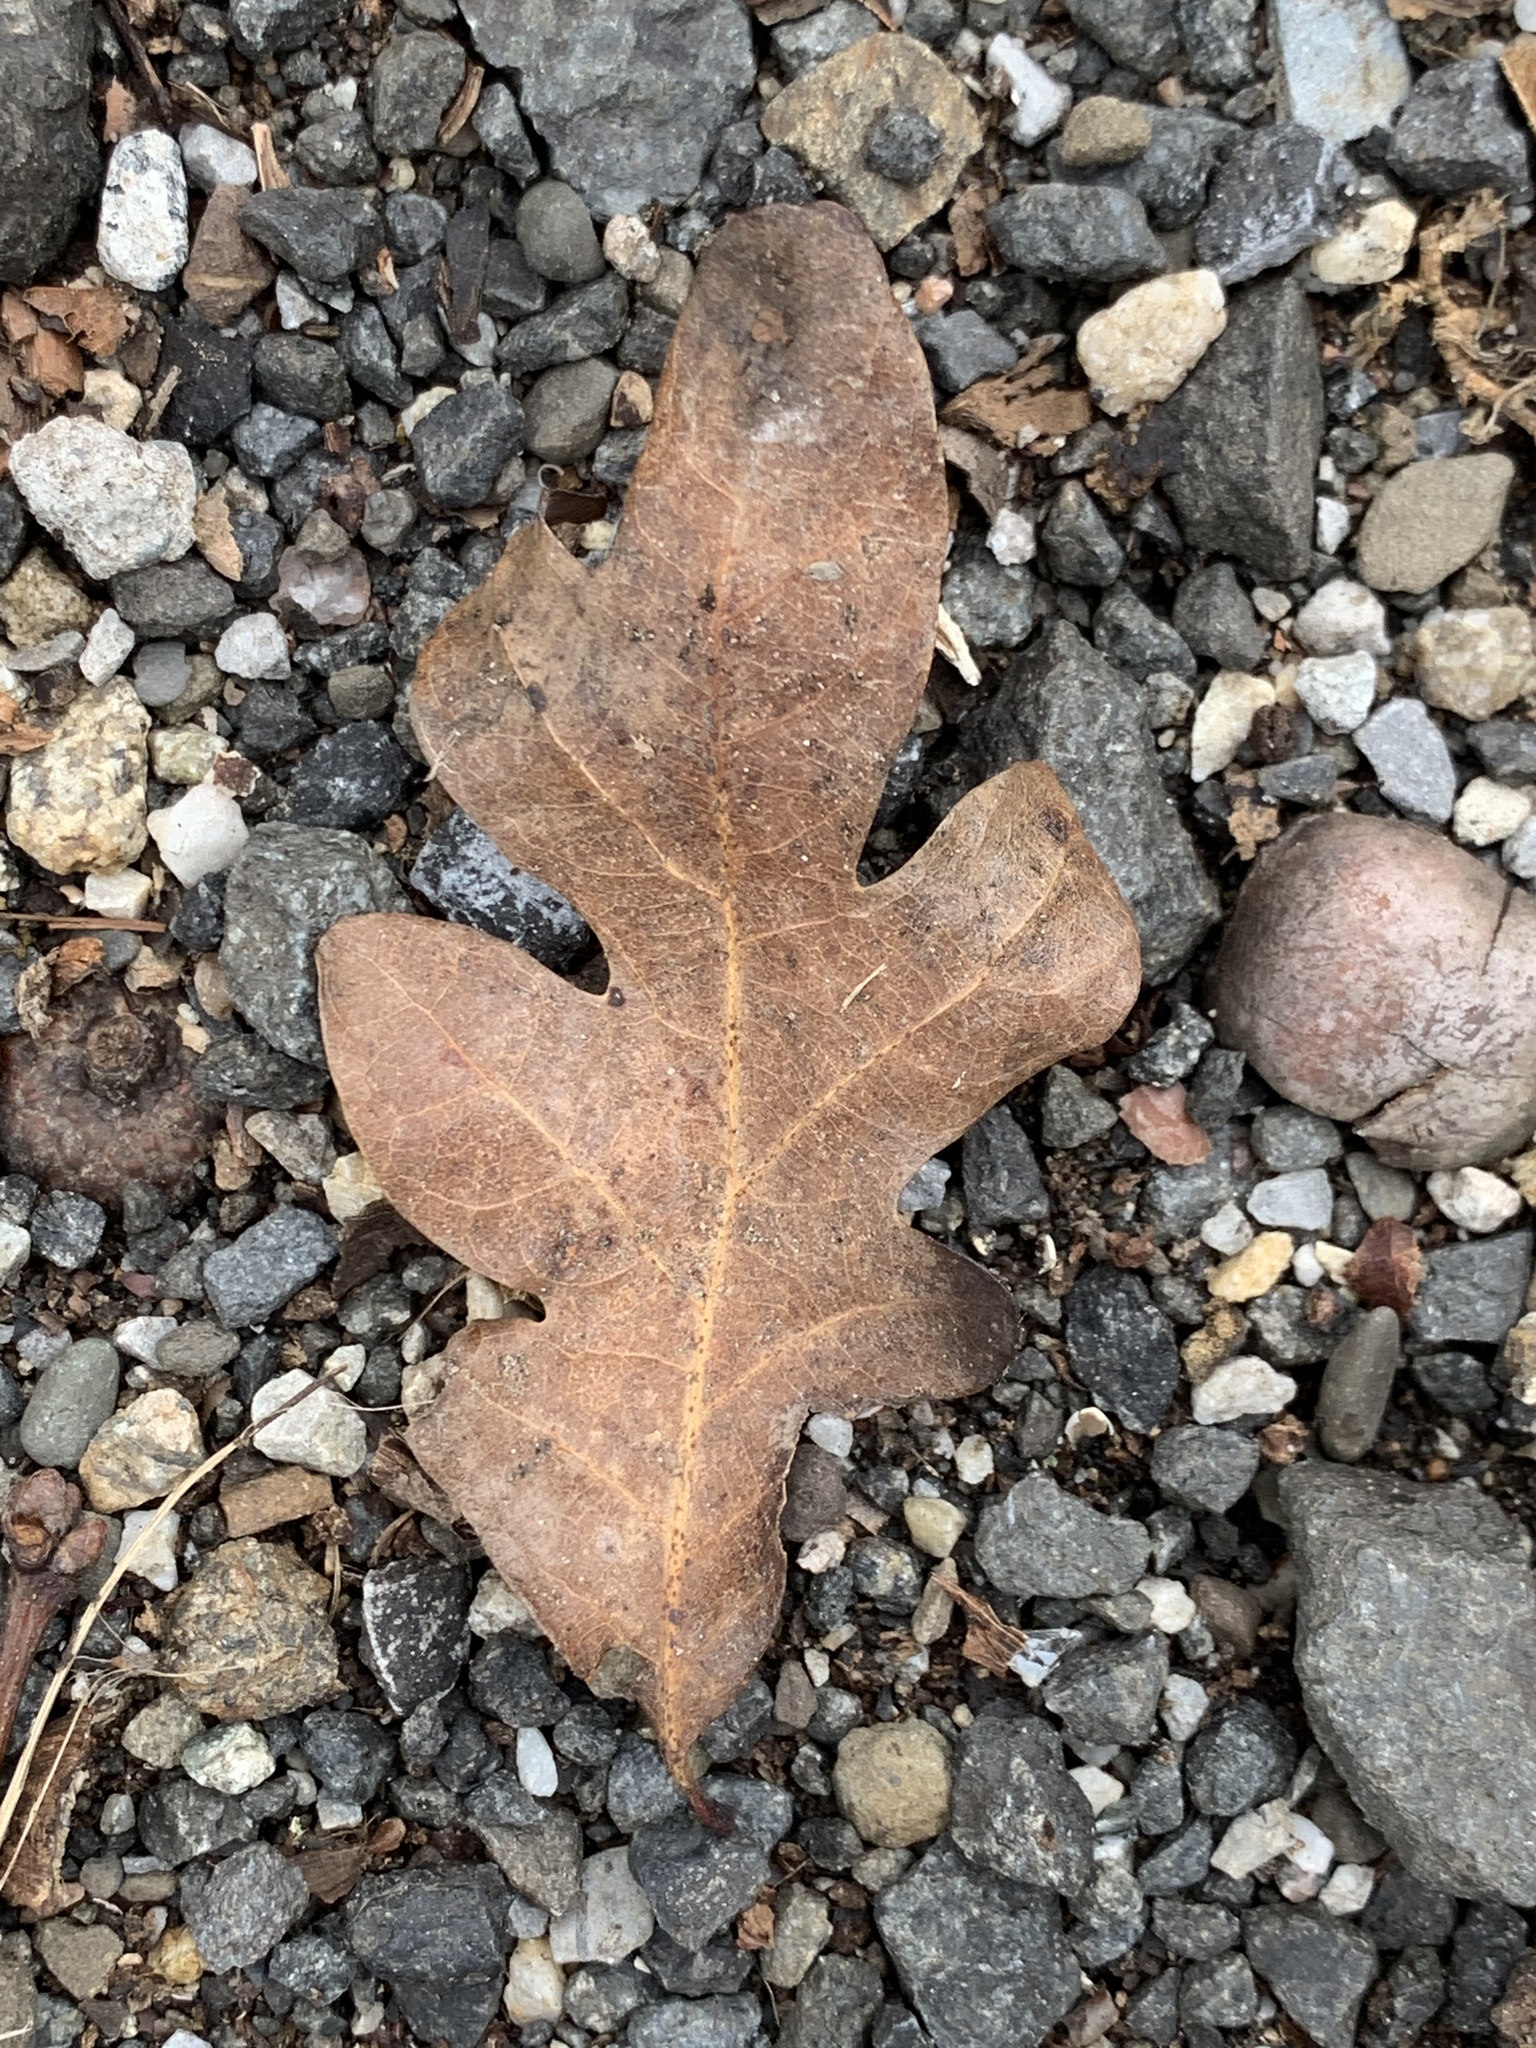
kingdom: Plantae
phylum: Tracheophyta
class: Magnoliopsida
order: Fagales
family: Fagaceae
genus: Quercus
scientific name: Quercus alba
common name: White oak
